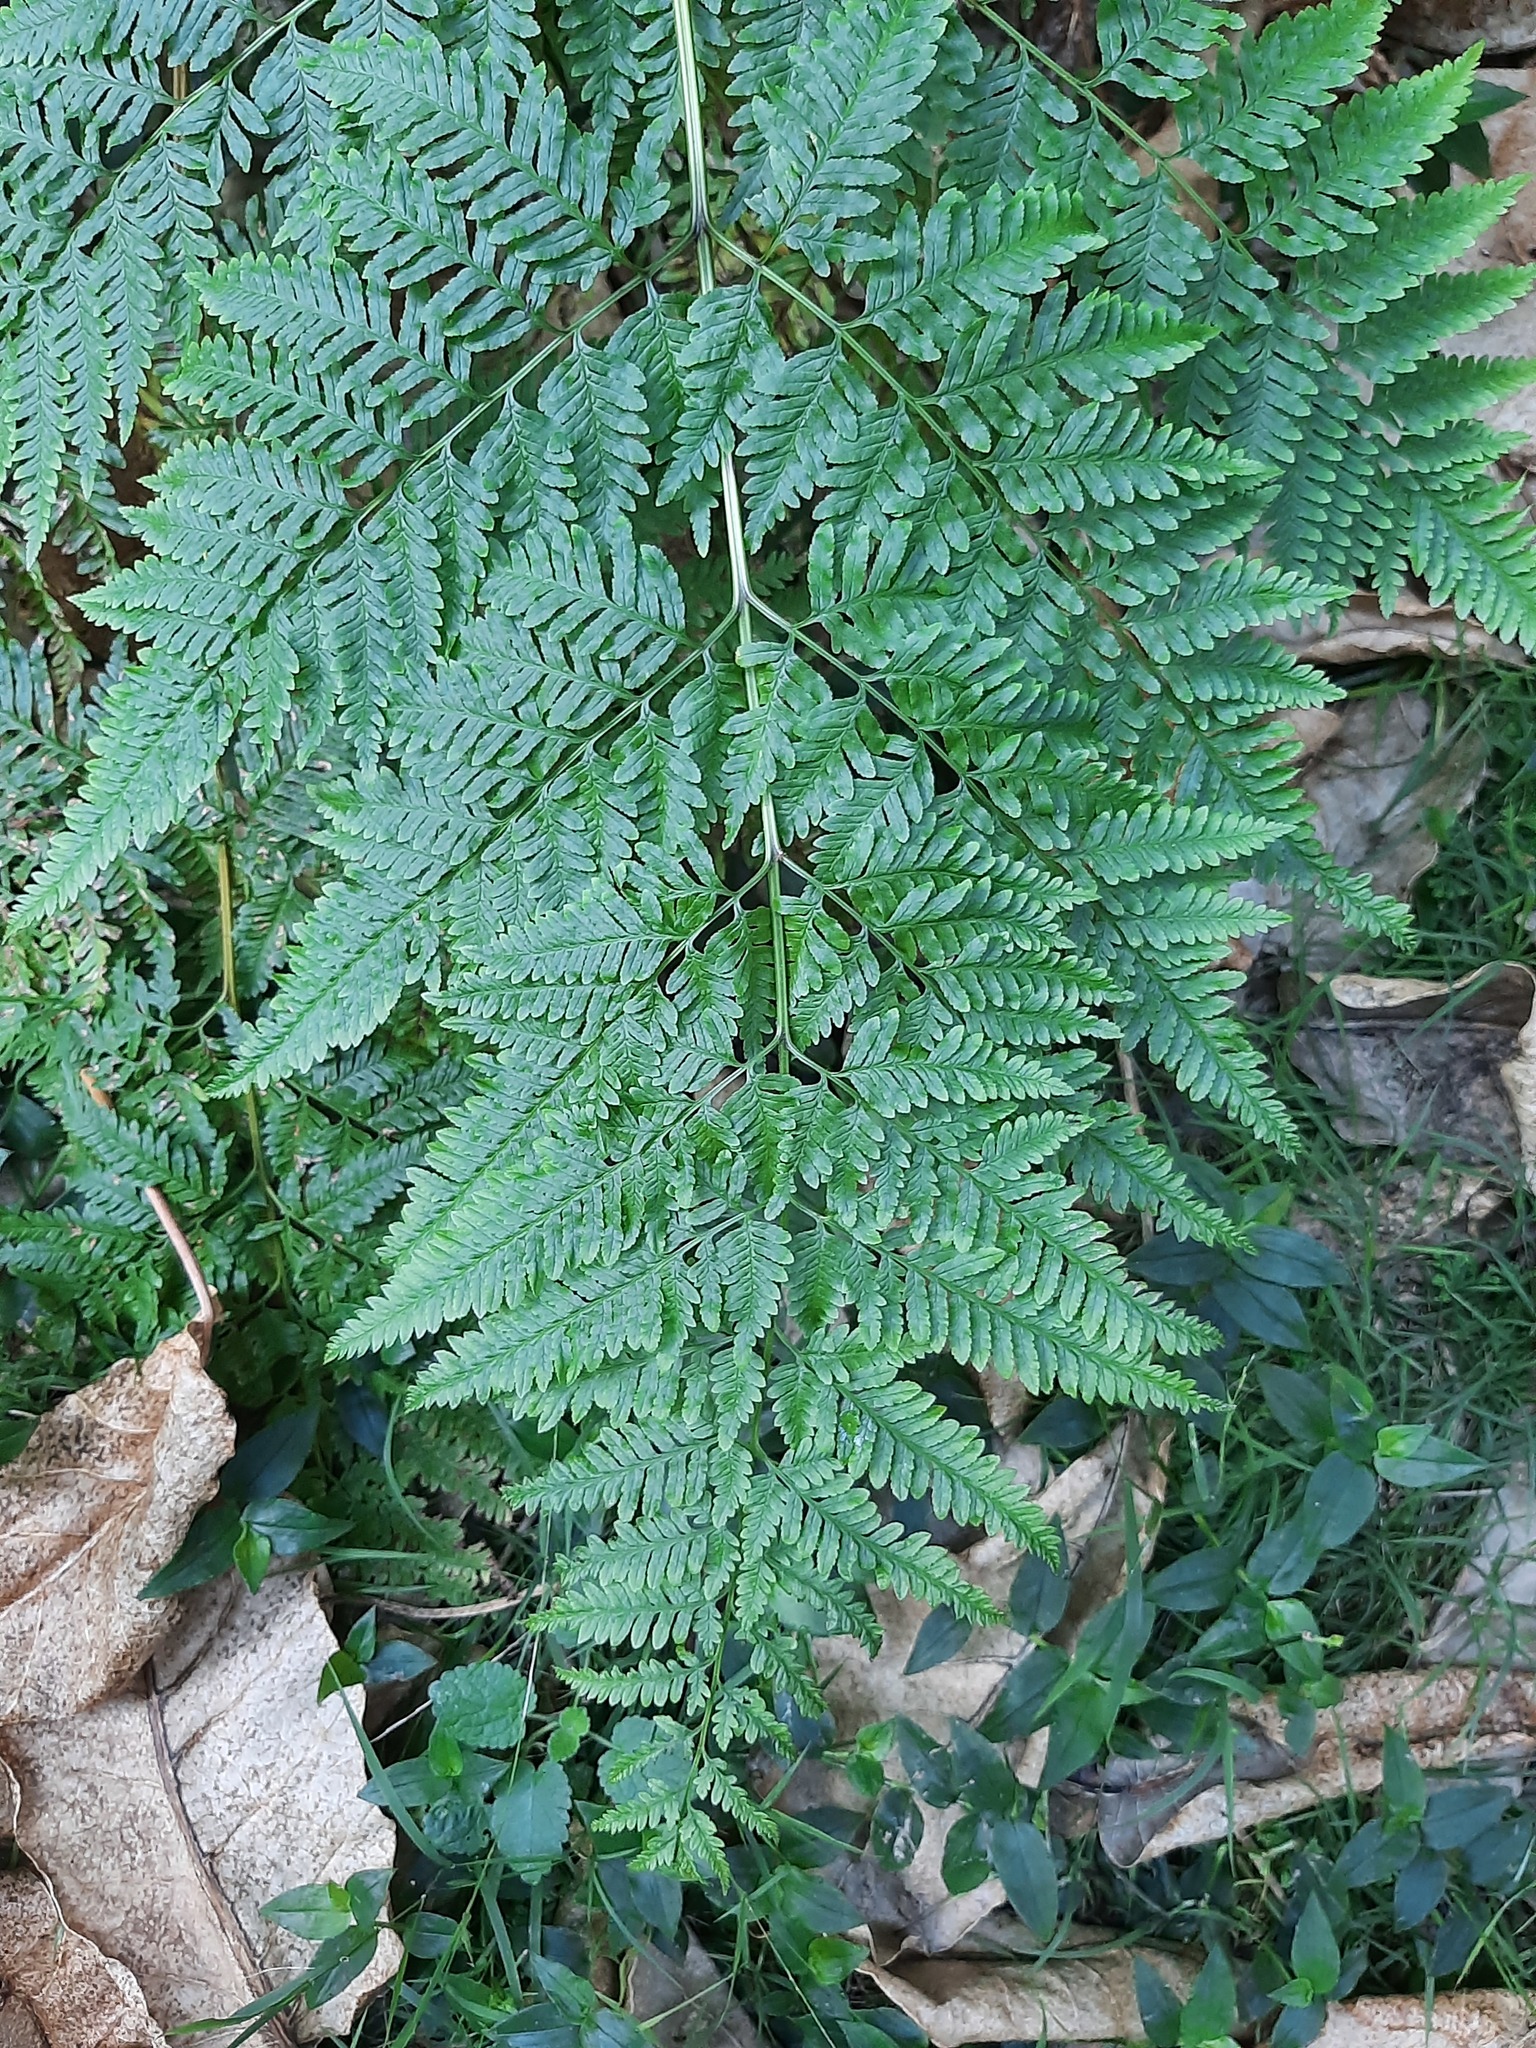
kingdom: Plantae
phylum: Tracheophyta
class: Polypodiopsida
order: Polypodiales
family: Pteridaceae
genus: Pteris
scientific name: Pteris tremula
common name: Australian brake
